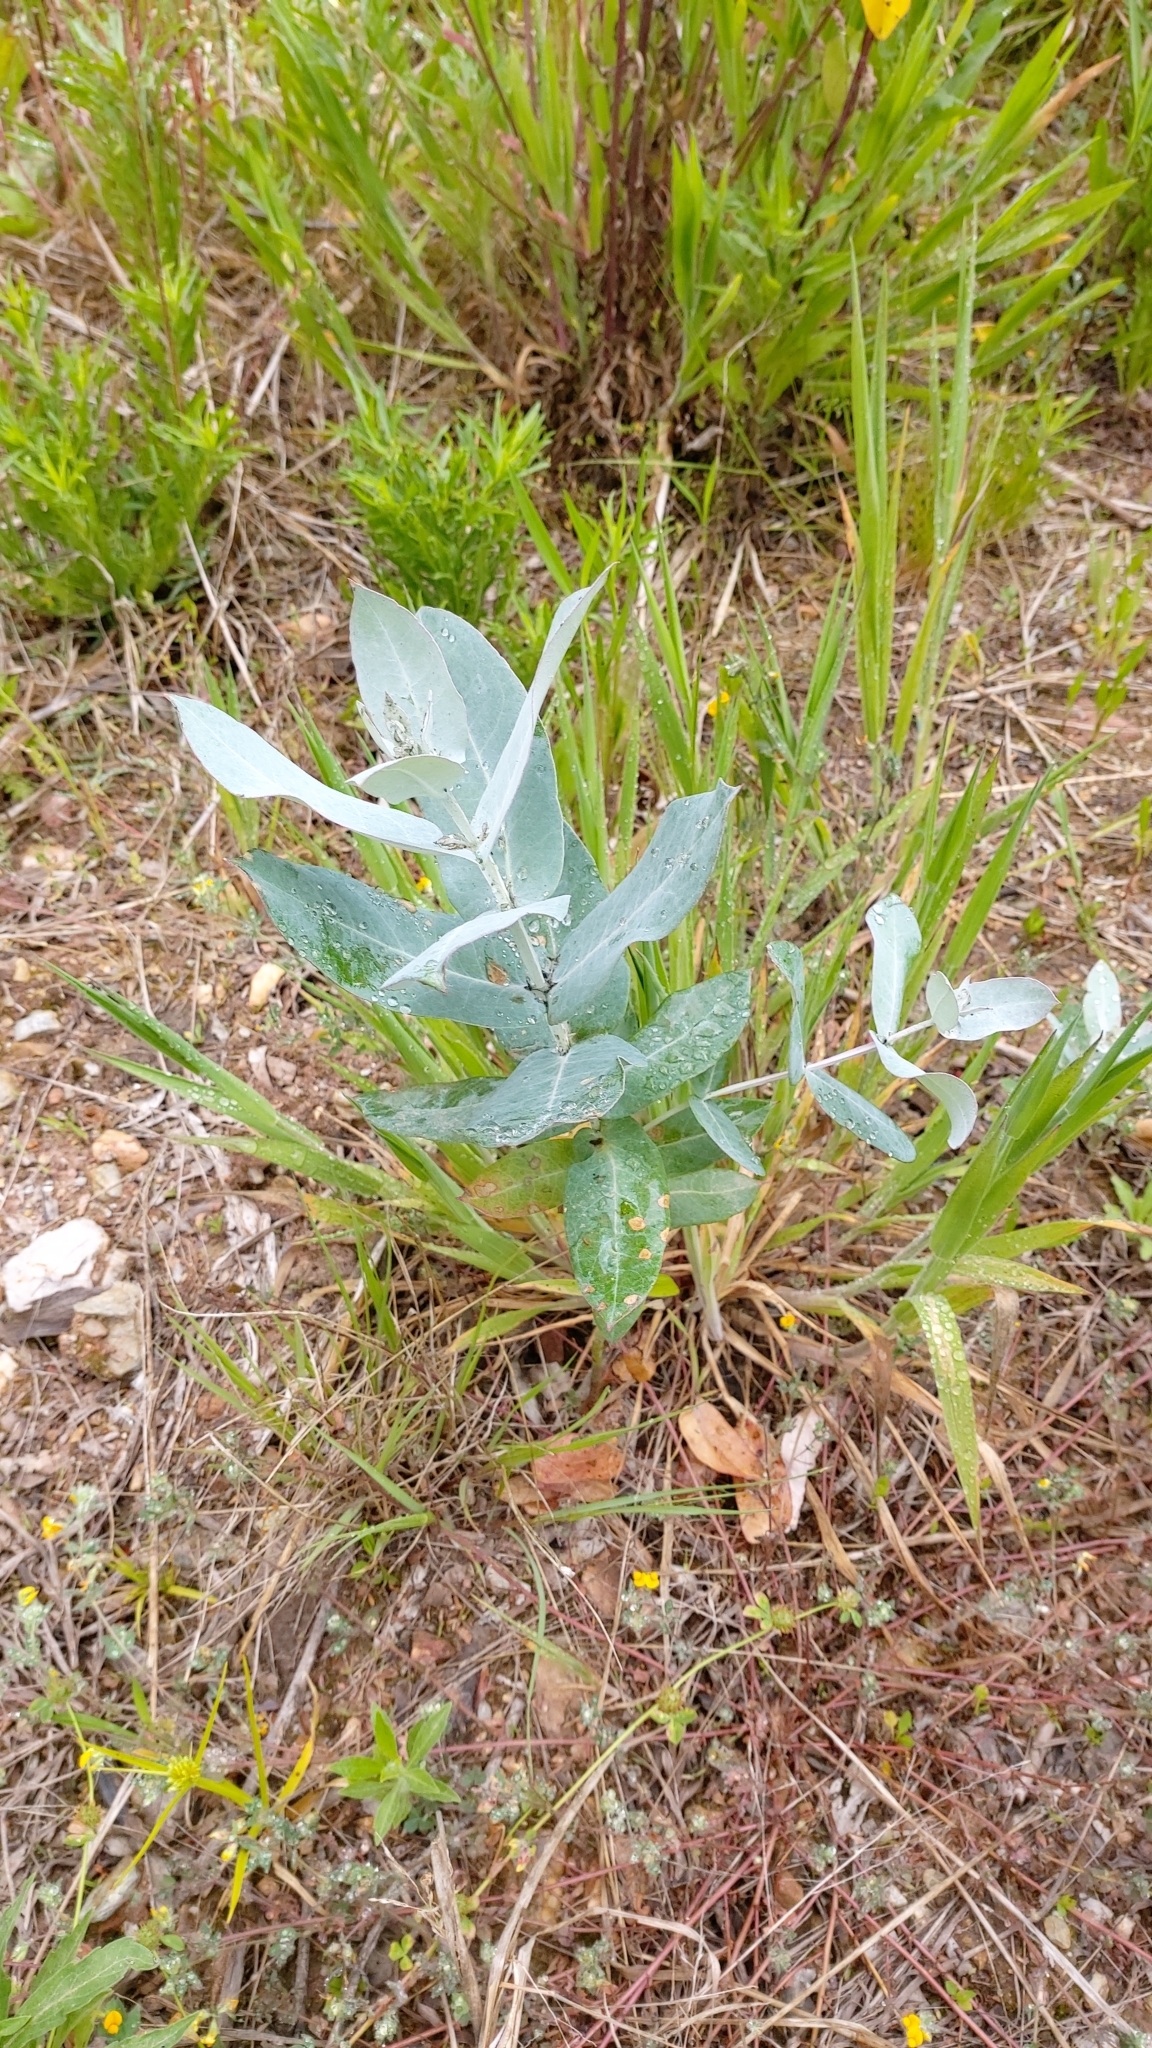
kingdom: Plantae
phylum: Tracheophyta
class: Magnoliopsida
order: Myrtales
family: Myrtaceae
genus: Eucalyptus
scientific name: Eucalyptus globulus
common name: Southern blue-gum
